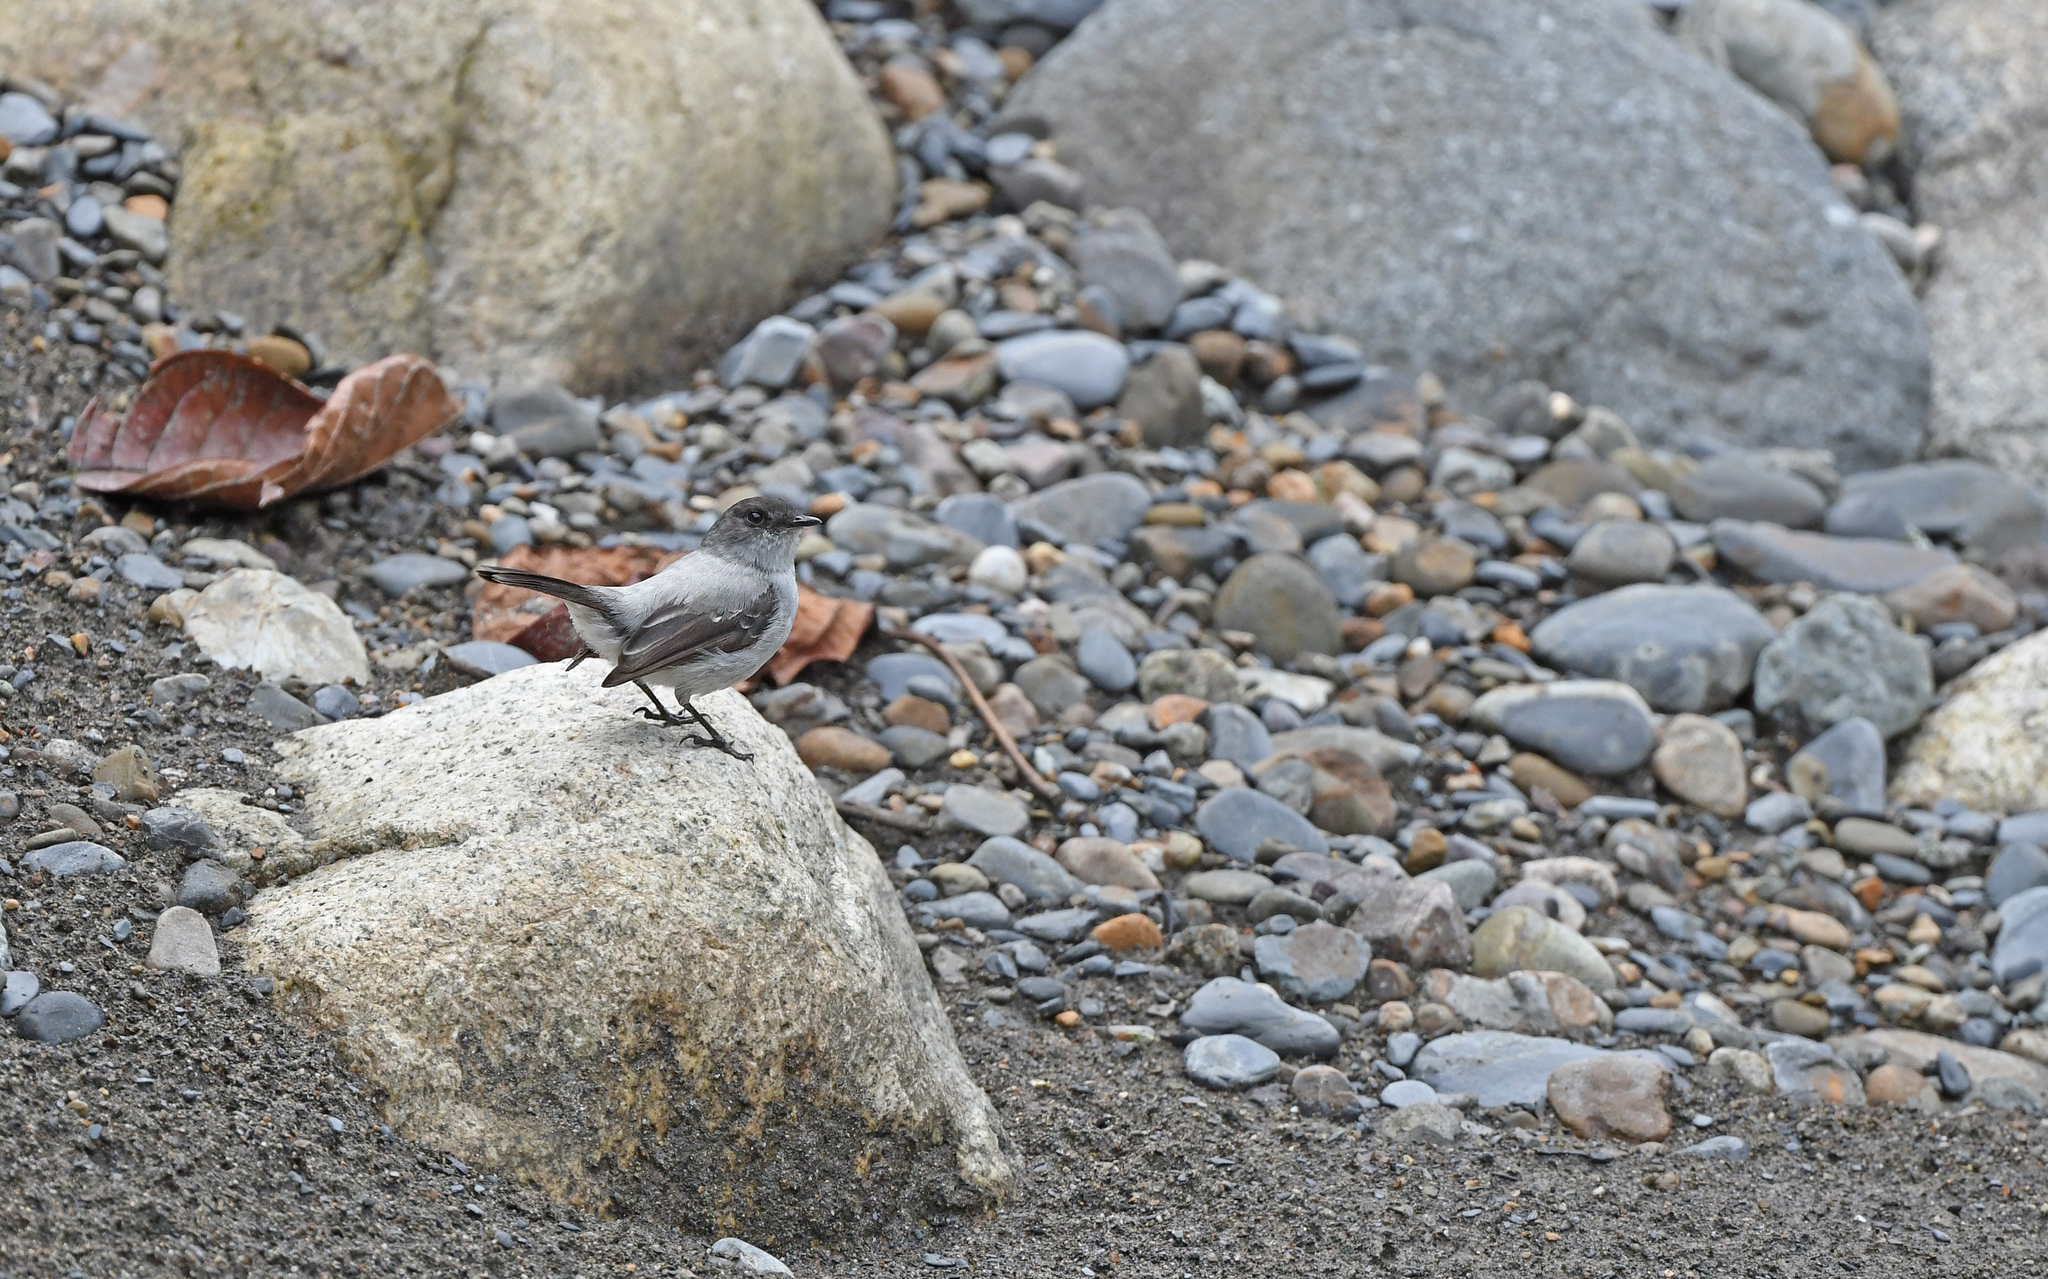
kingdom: Animalia
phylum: Chordata
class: Aves
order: Passeriformes
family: Tyrannidae
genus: Serpophaga
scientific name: Serpophaga cinerea
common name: Torrent tyrannulet
